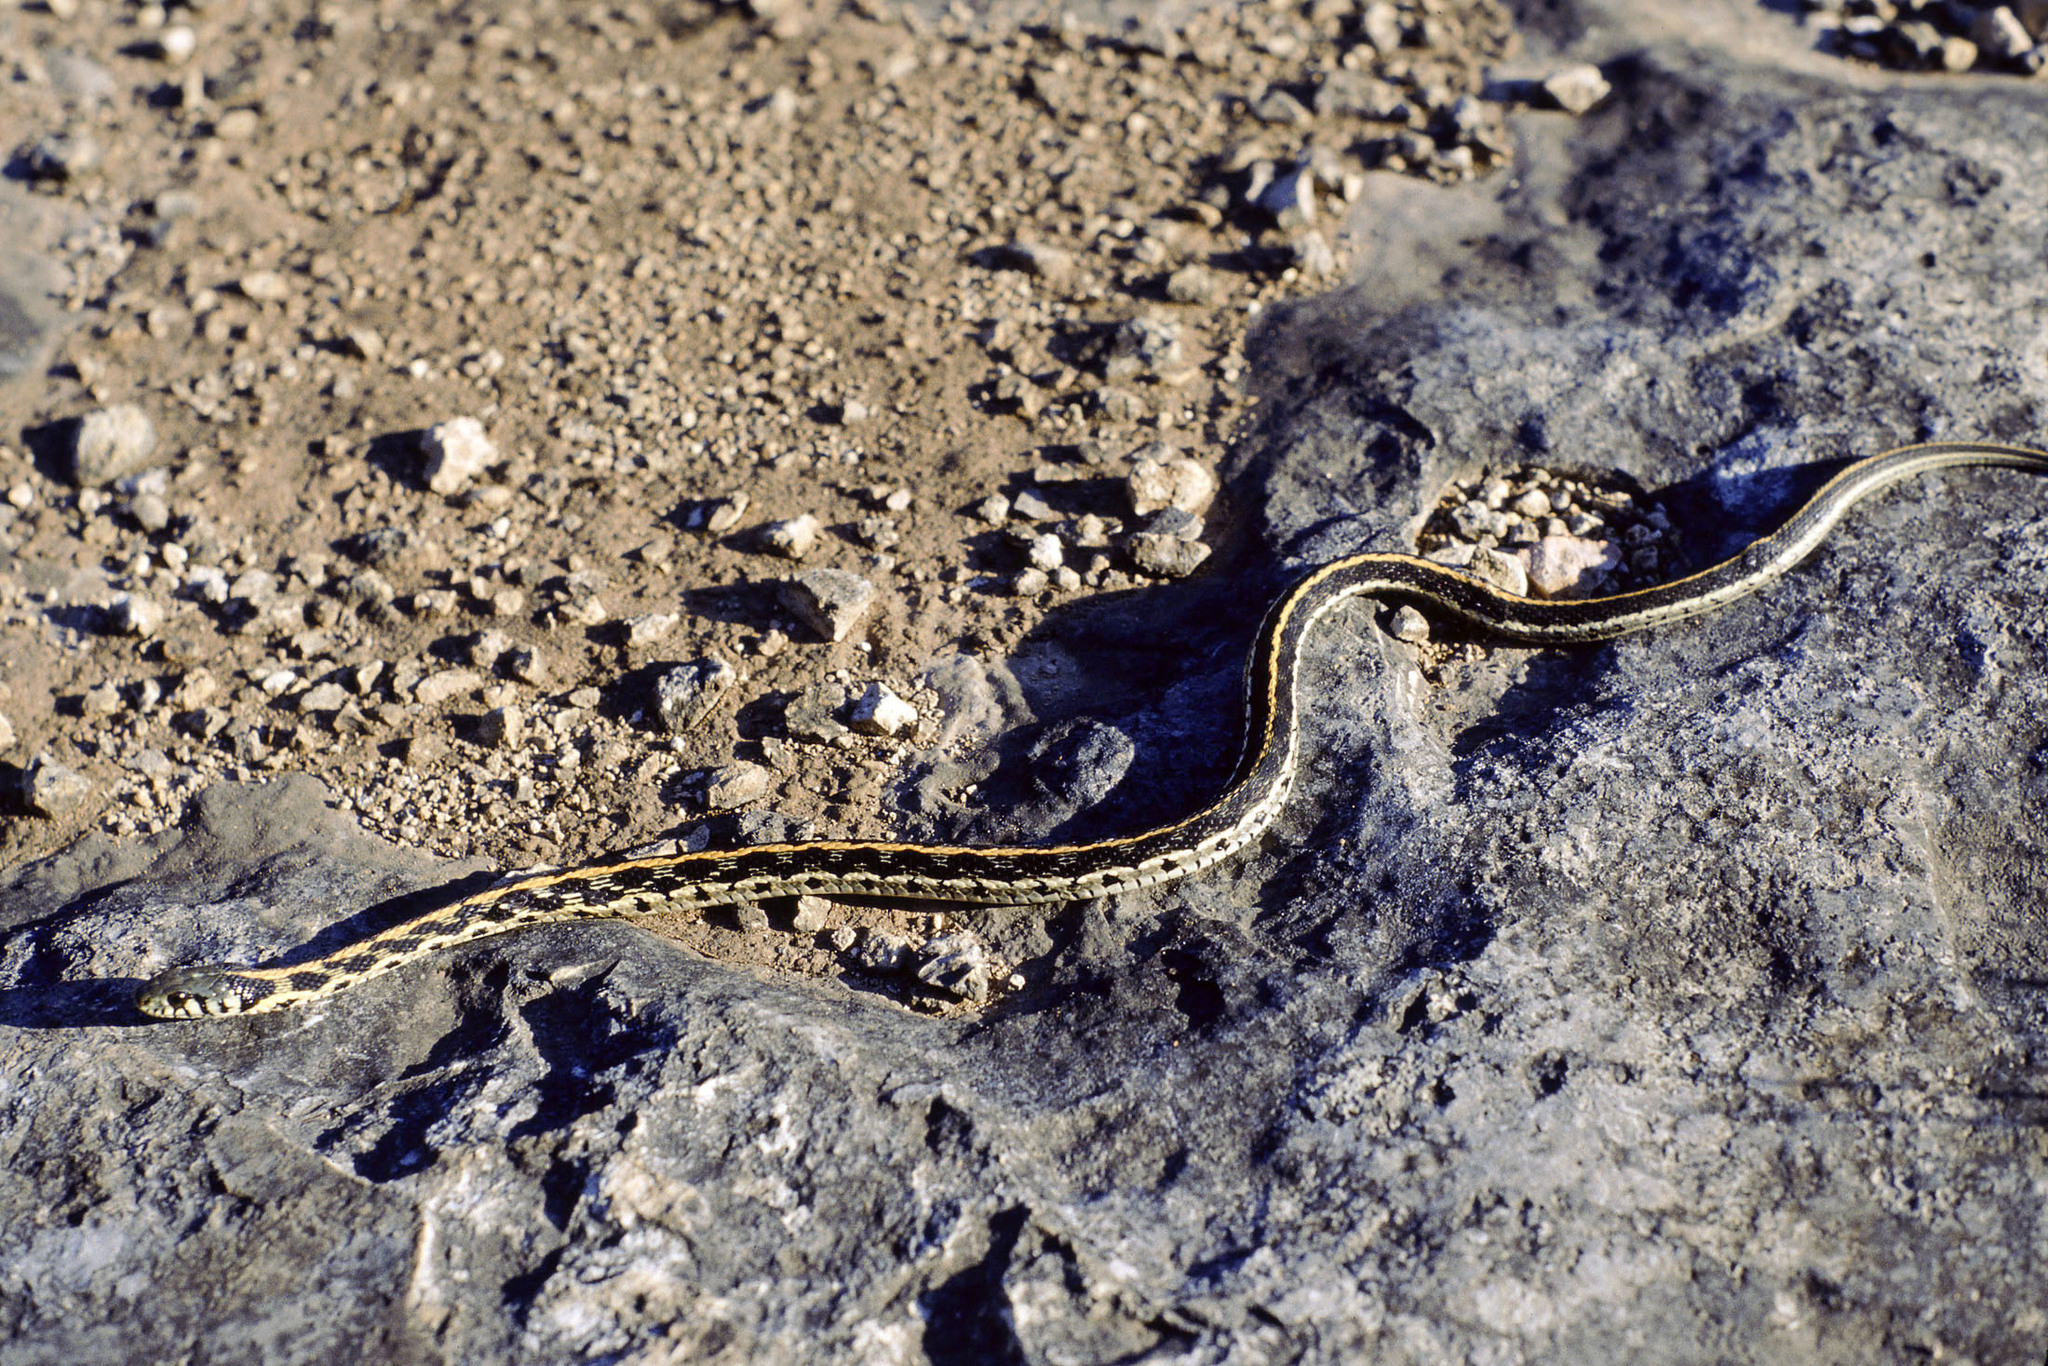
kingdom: Animalia
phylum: Chordata
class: Squamata
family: Colubridae
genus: Thamnophis
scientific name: Thamnophis cyrtopsis
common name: Black-necked gartersnake
